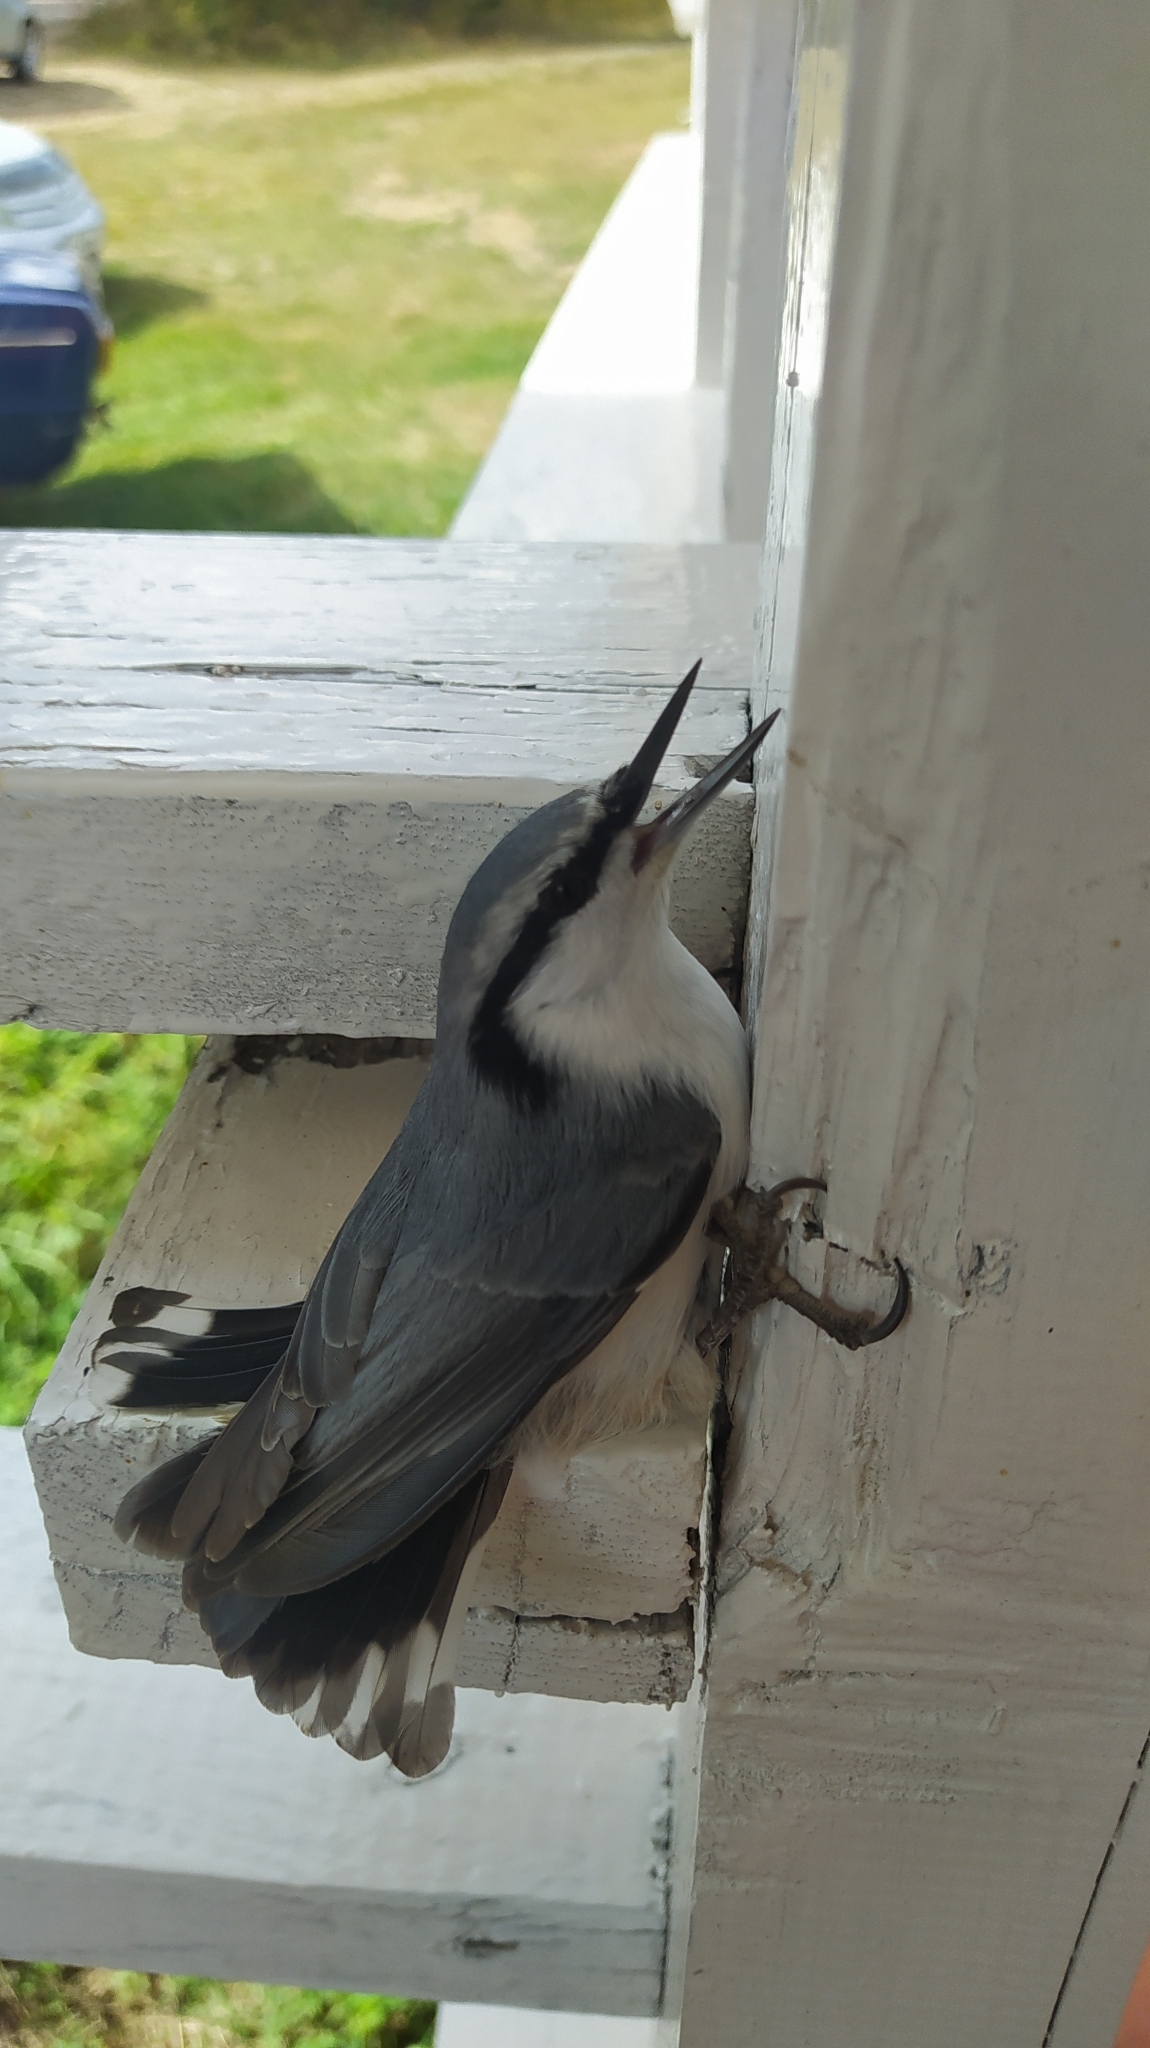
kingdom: Animalia
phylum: Chordata
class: Aves
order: Passeriformes
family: Sittidae
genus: Sitta
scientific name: Sitta europaea
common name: Eurasian nuthatch
